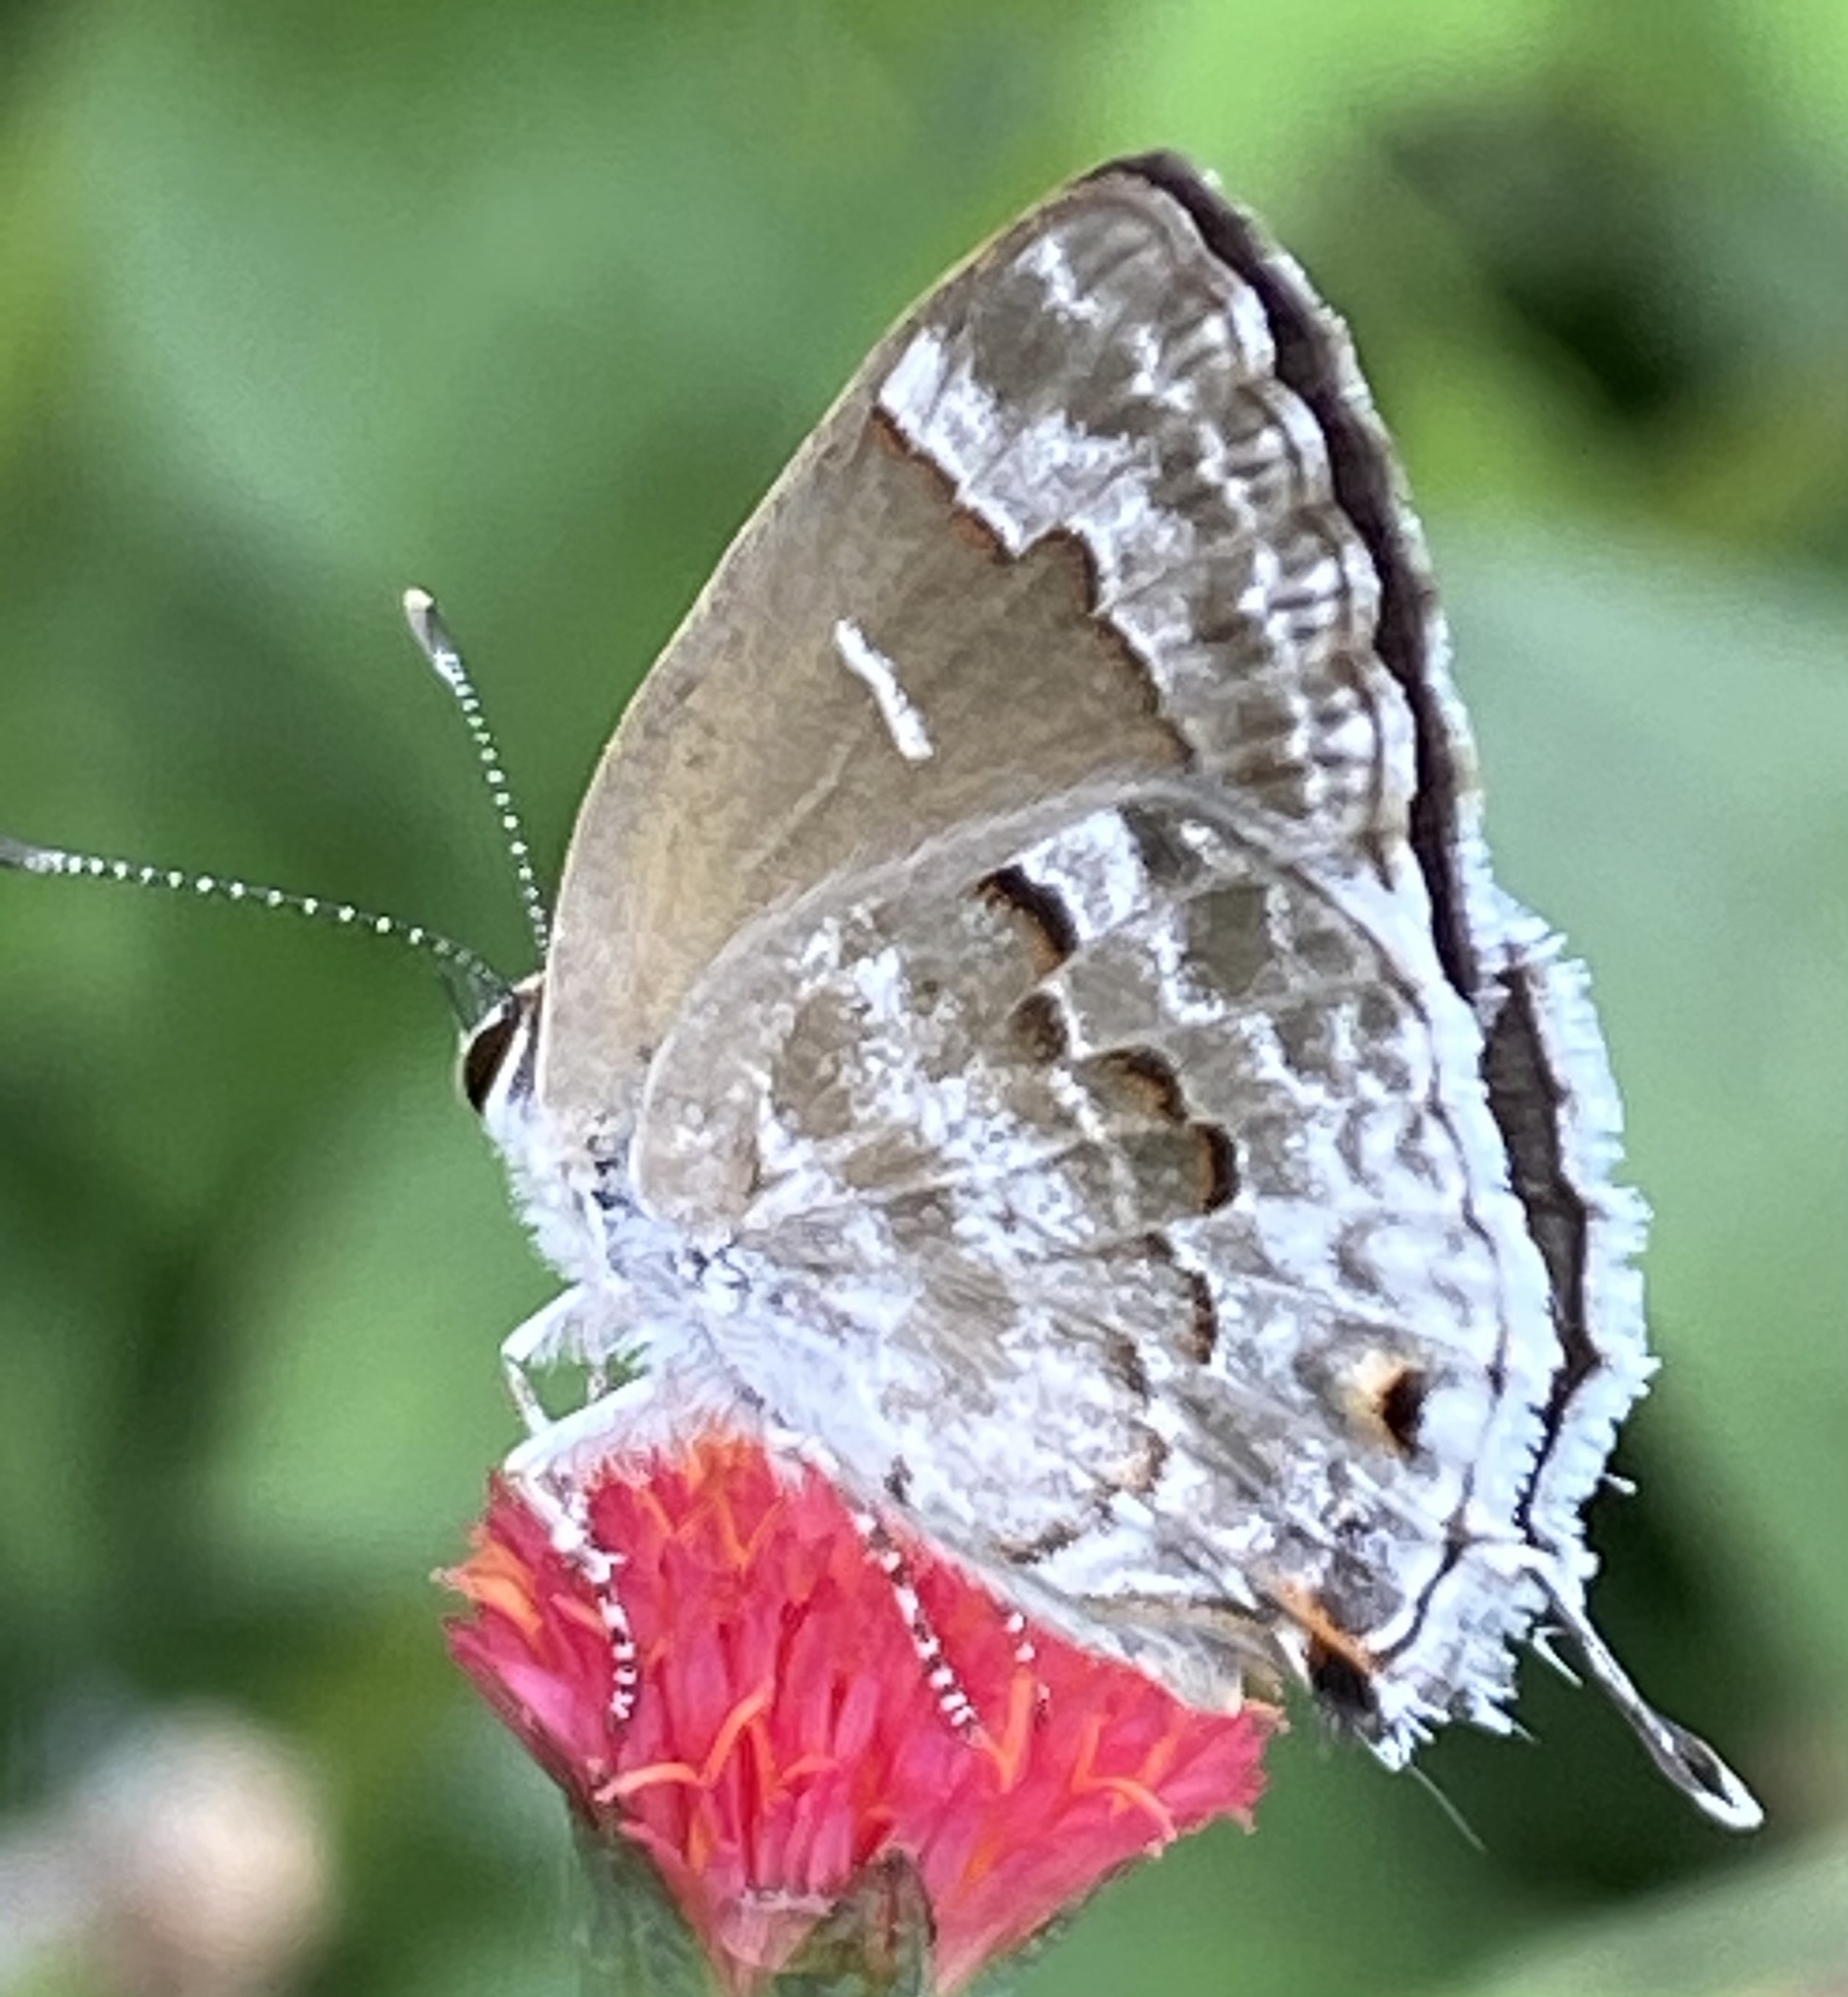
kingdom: Animalia
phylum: Arthropoda
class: Insecta
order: Lepidoptera
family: Lycaenidae
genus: Strymon
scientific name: Strymon mulucha
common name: Mottled scrub-hairstreak
